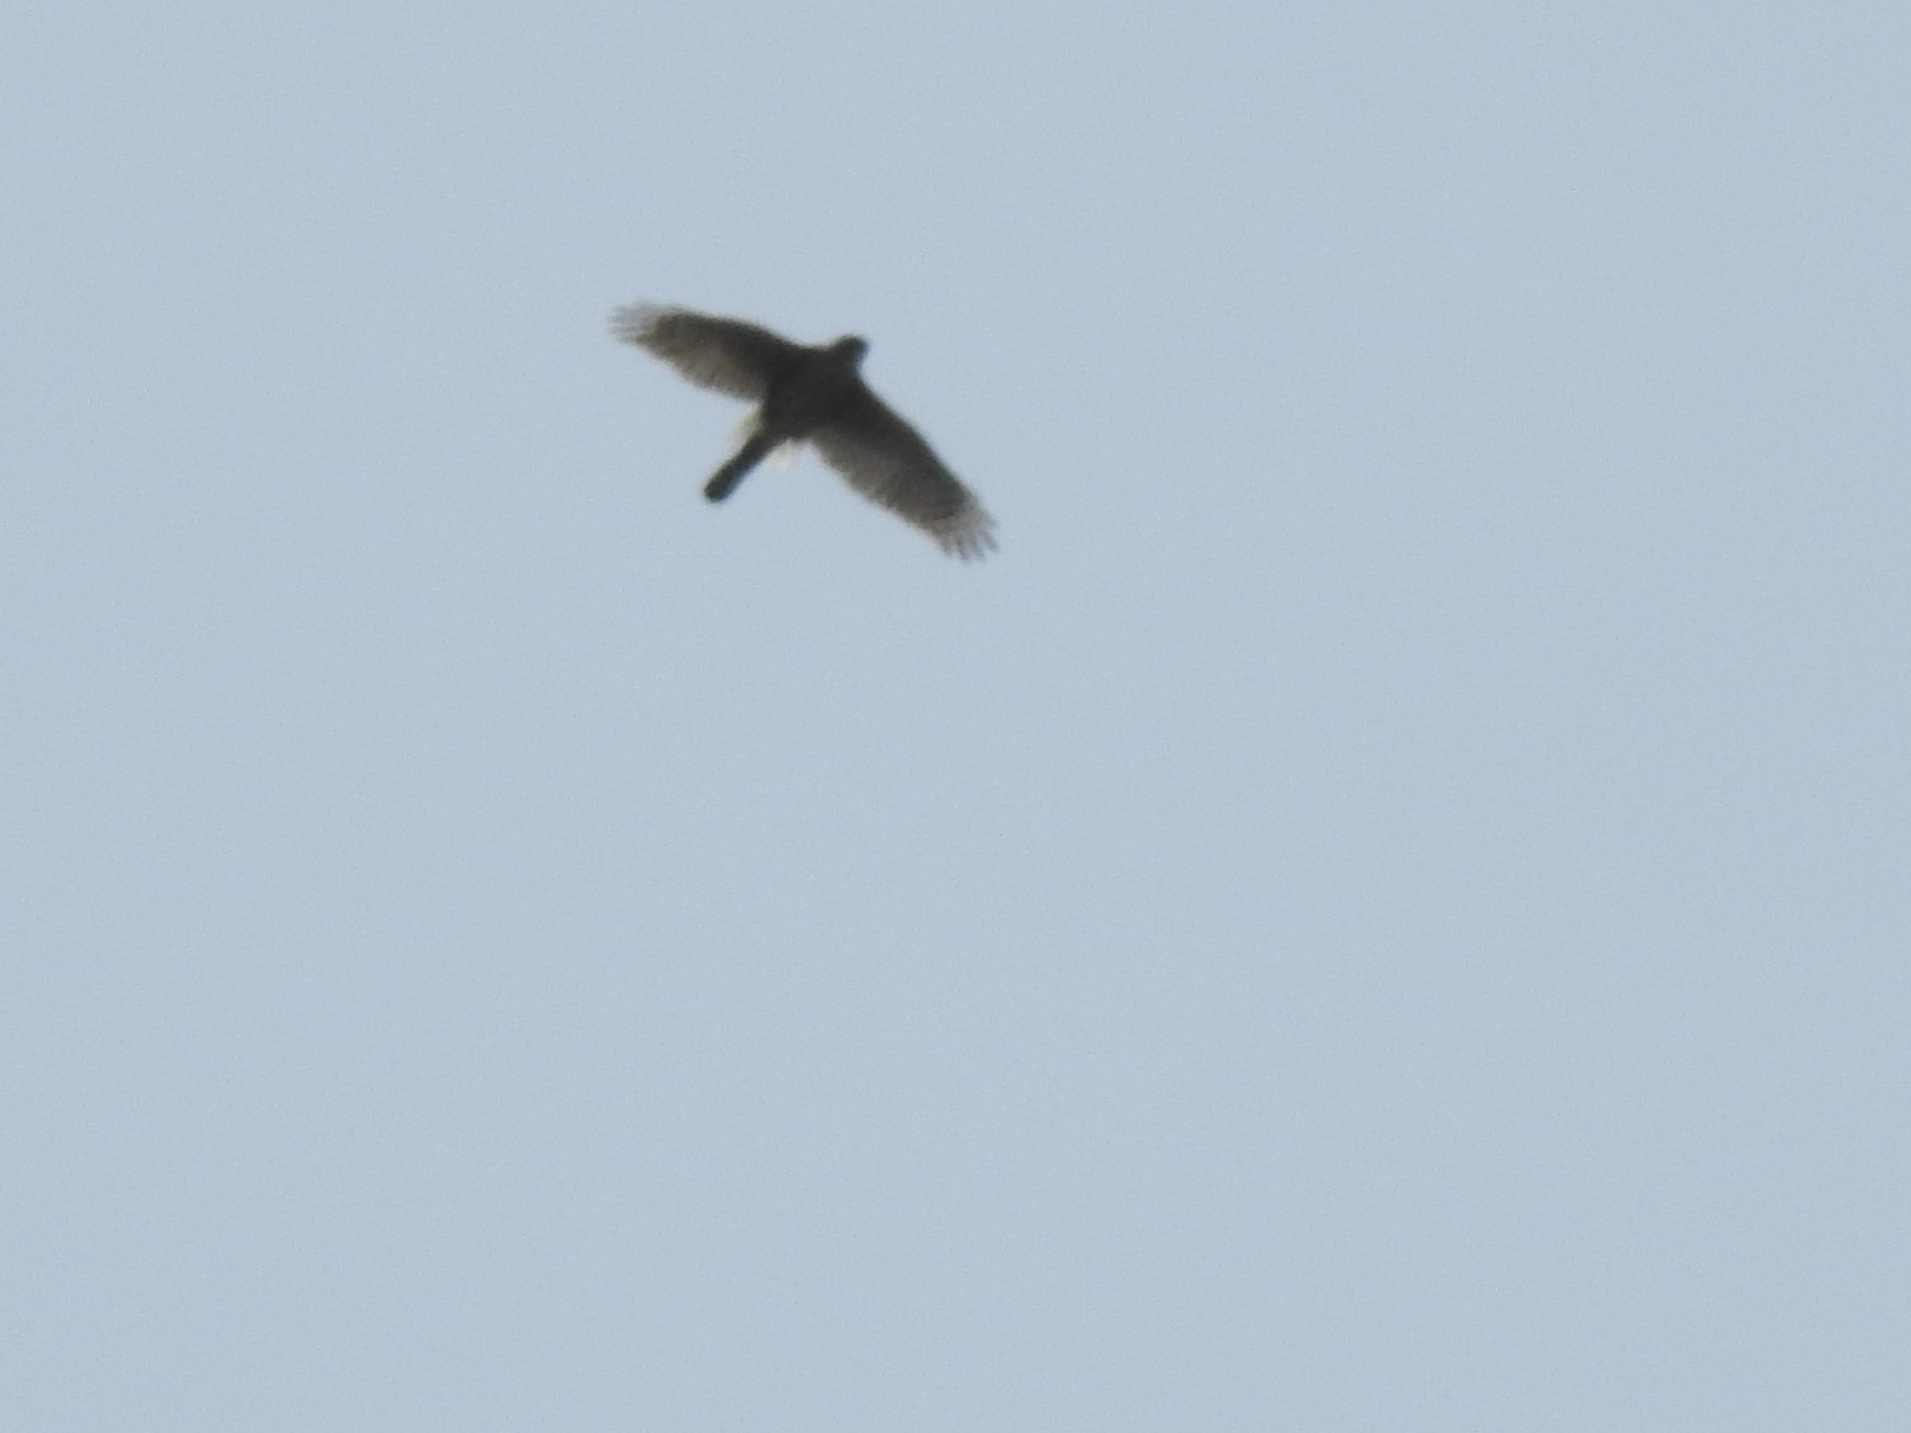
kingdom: Animalia
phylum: Chordata
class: Aves
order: Accipitriformes
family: Accipitridae
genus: Accipiter
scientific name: Accipiter cooperii
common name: Cooper's hawk
